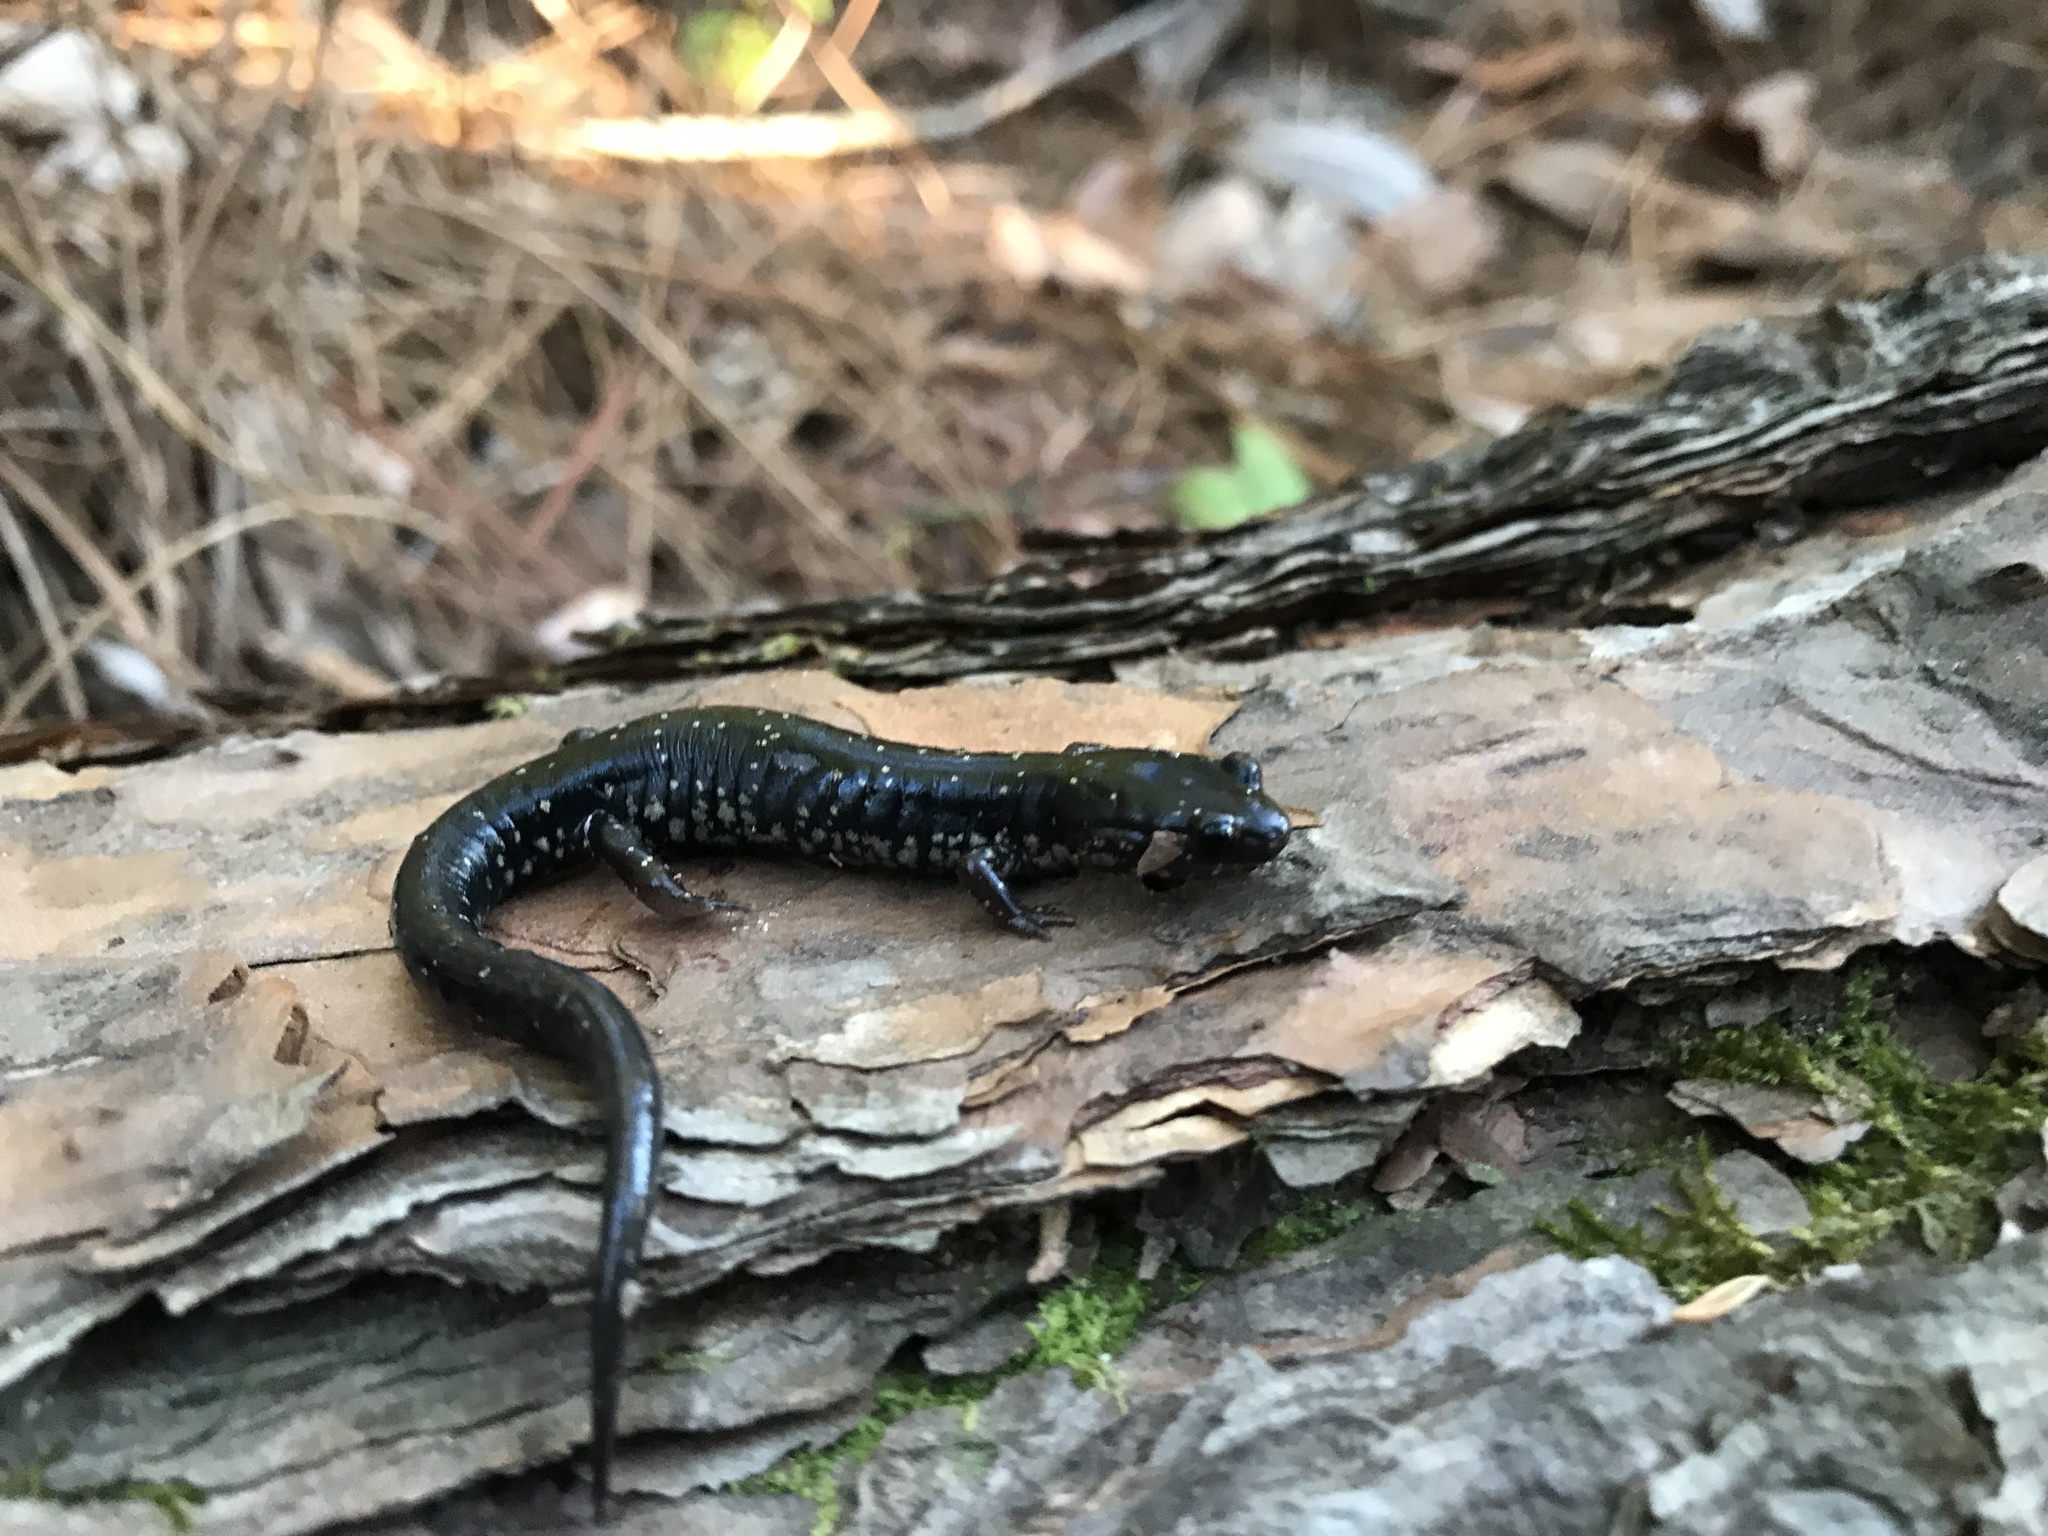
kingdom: Animalia
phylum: Chordata
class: Amphibia
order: Caudata
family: Plethodontidae
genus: Plethodon
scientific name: Plethodon mississippi
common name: Mississippi slimy salamander
